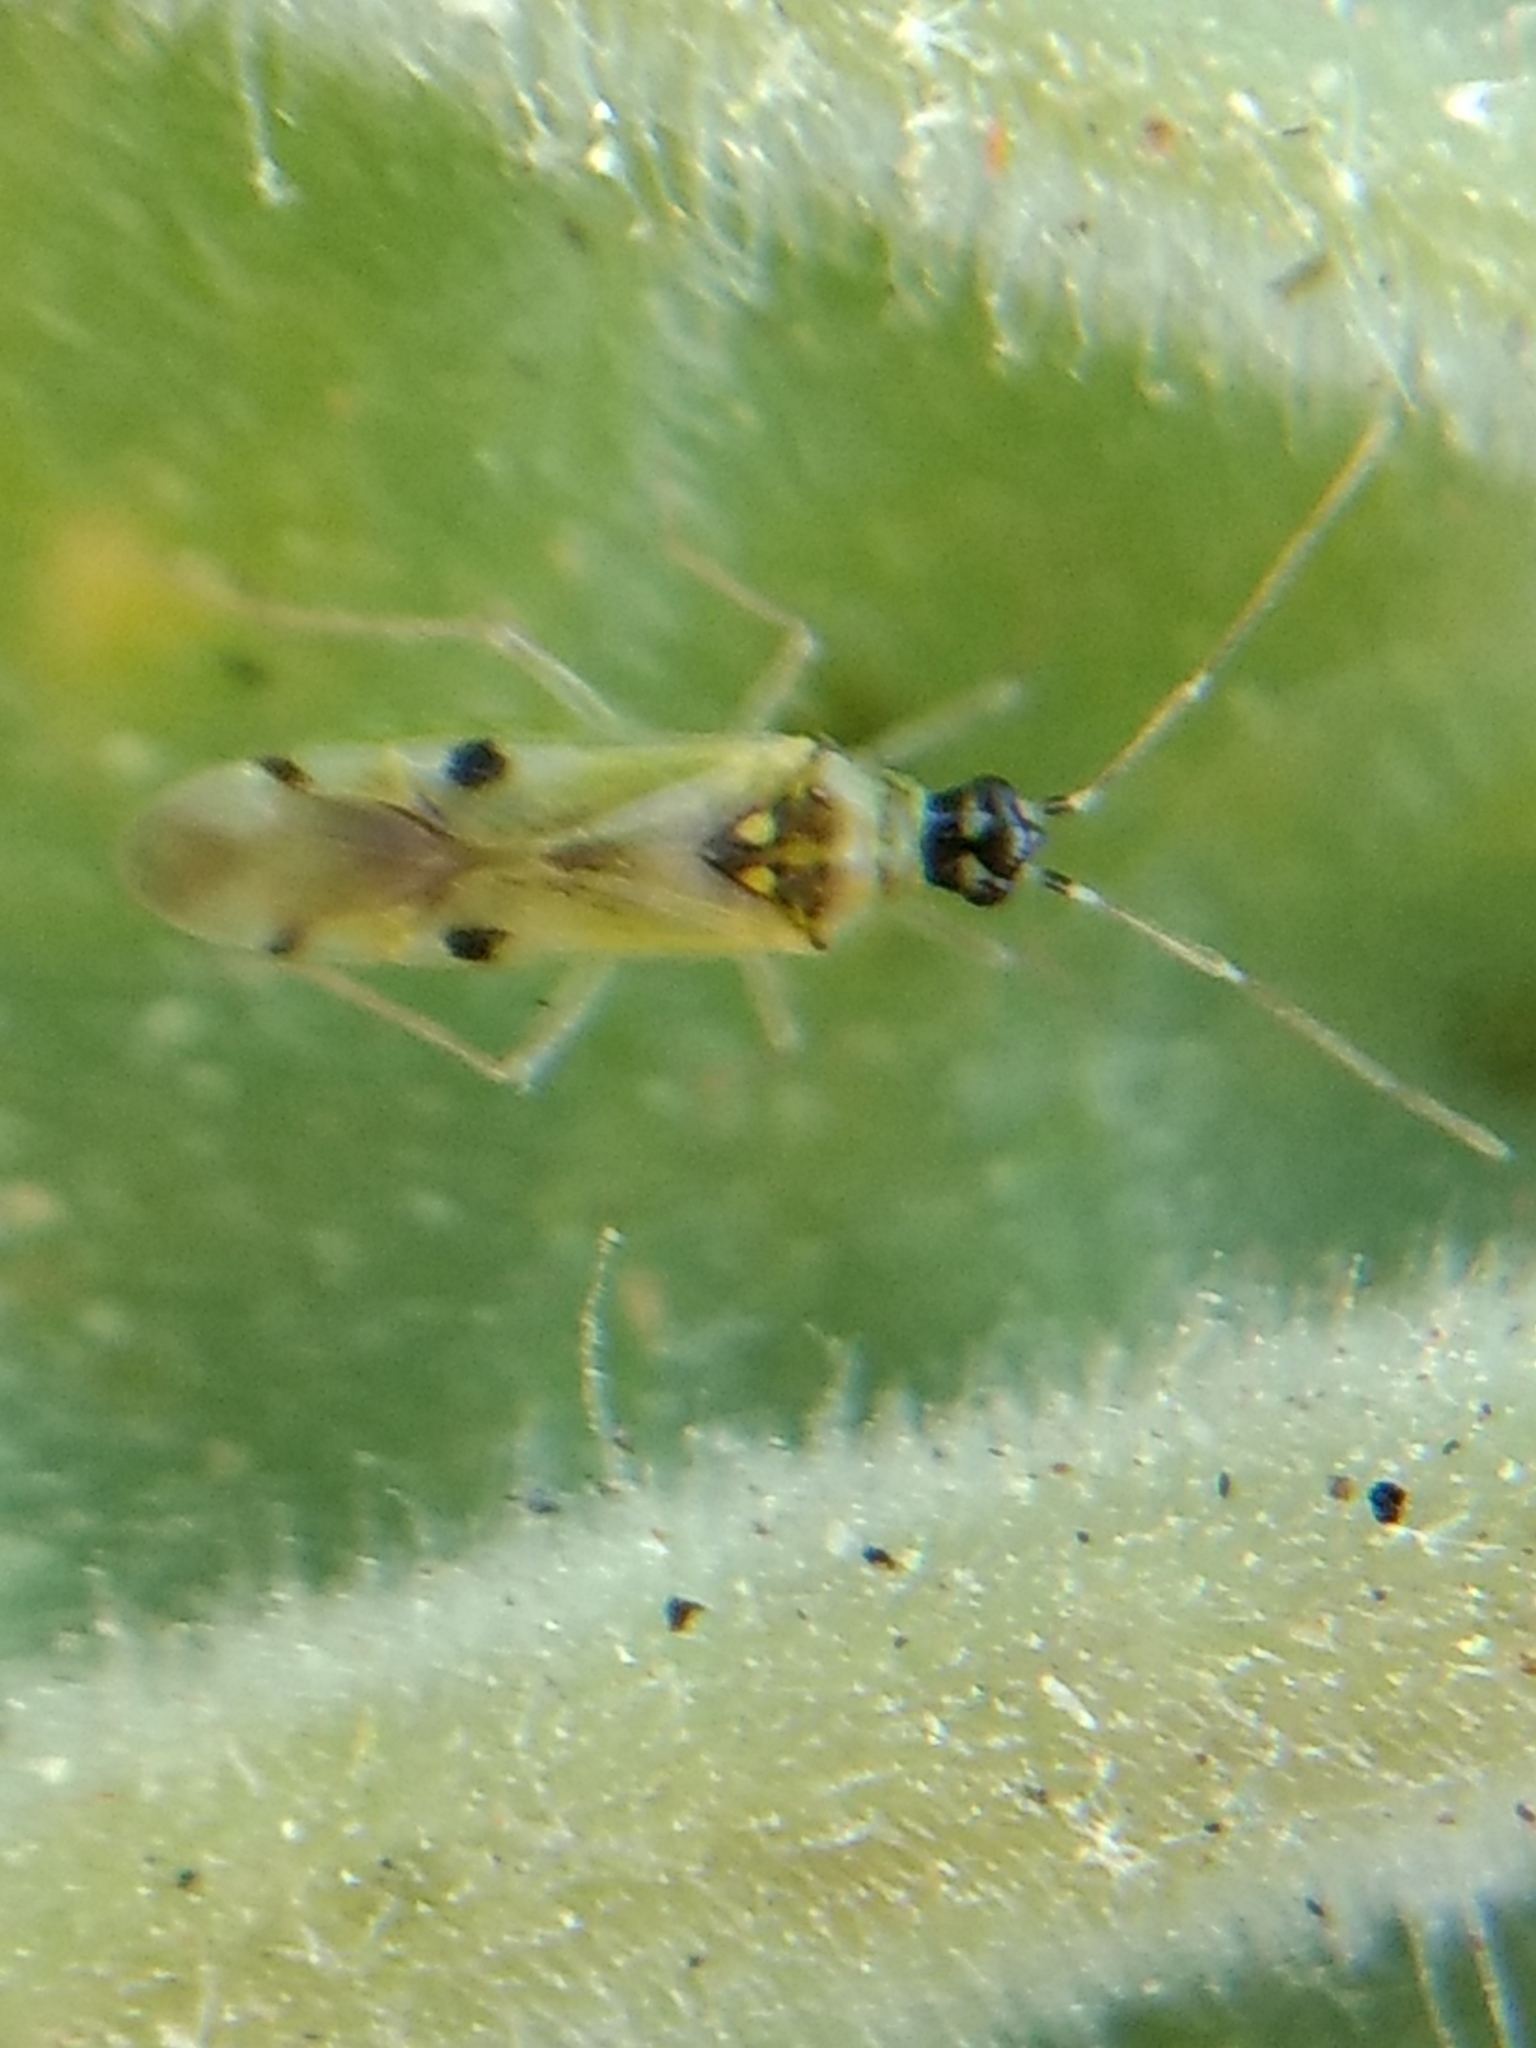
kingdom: Animalia
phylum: Arthropoda
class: Insecta
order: Hemiptera
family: Miridae
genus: Tupiocoris
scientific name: Tupiocoris notatus
